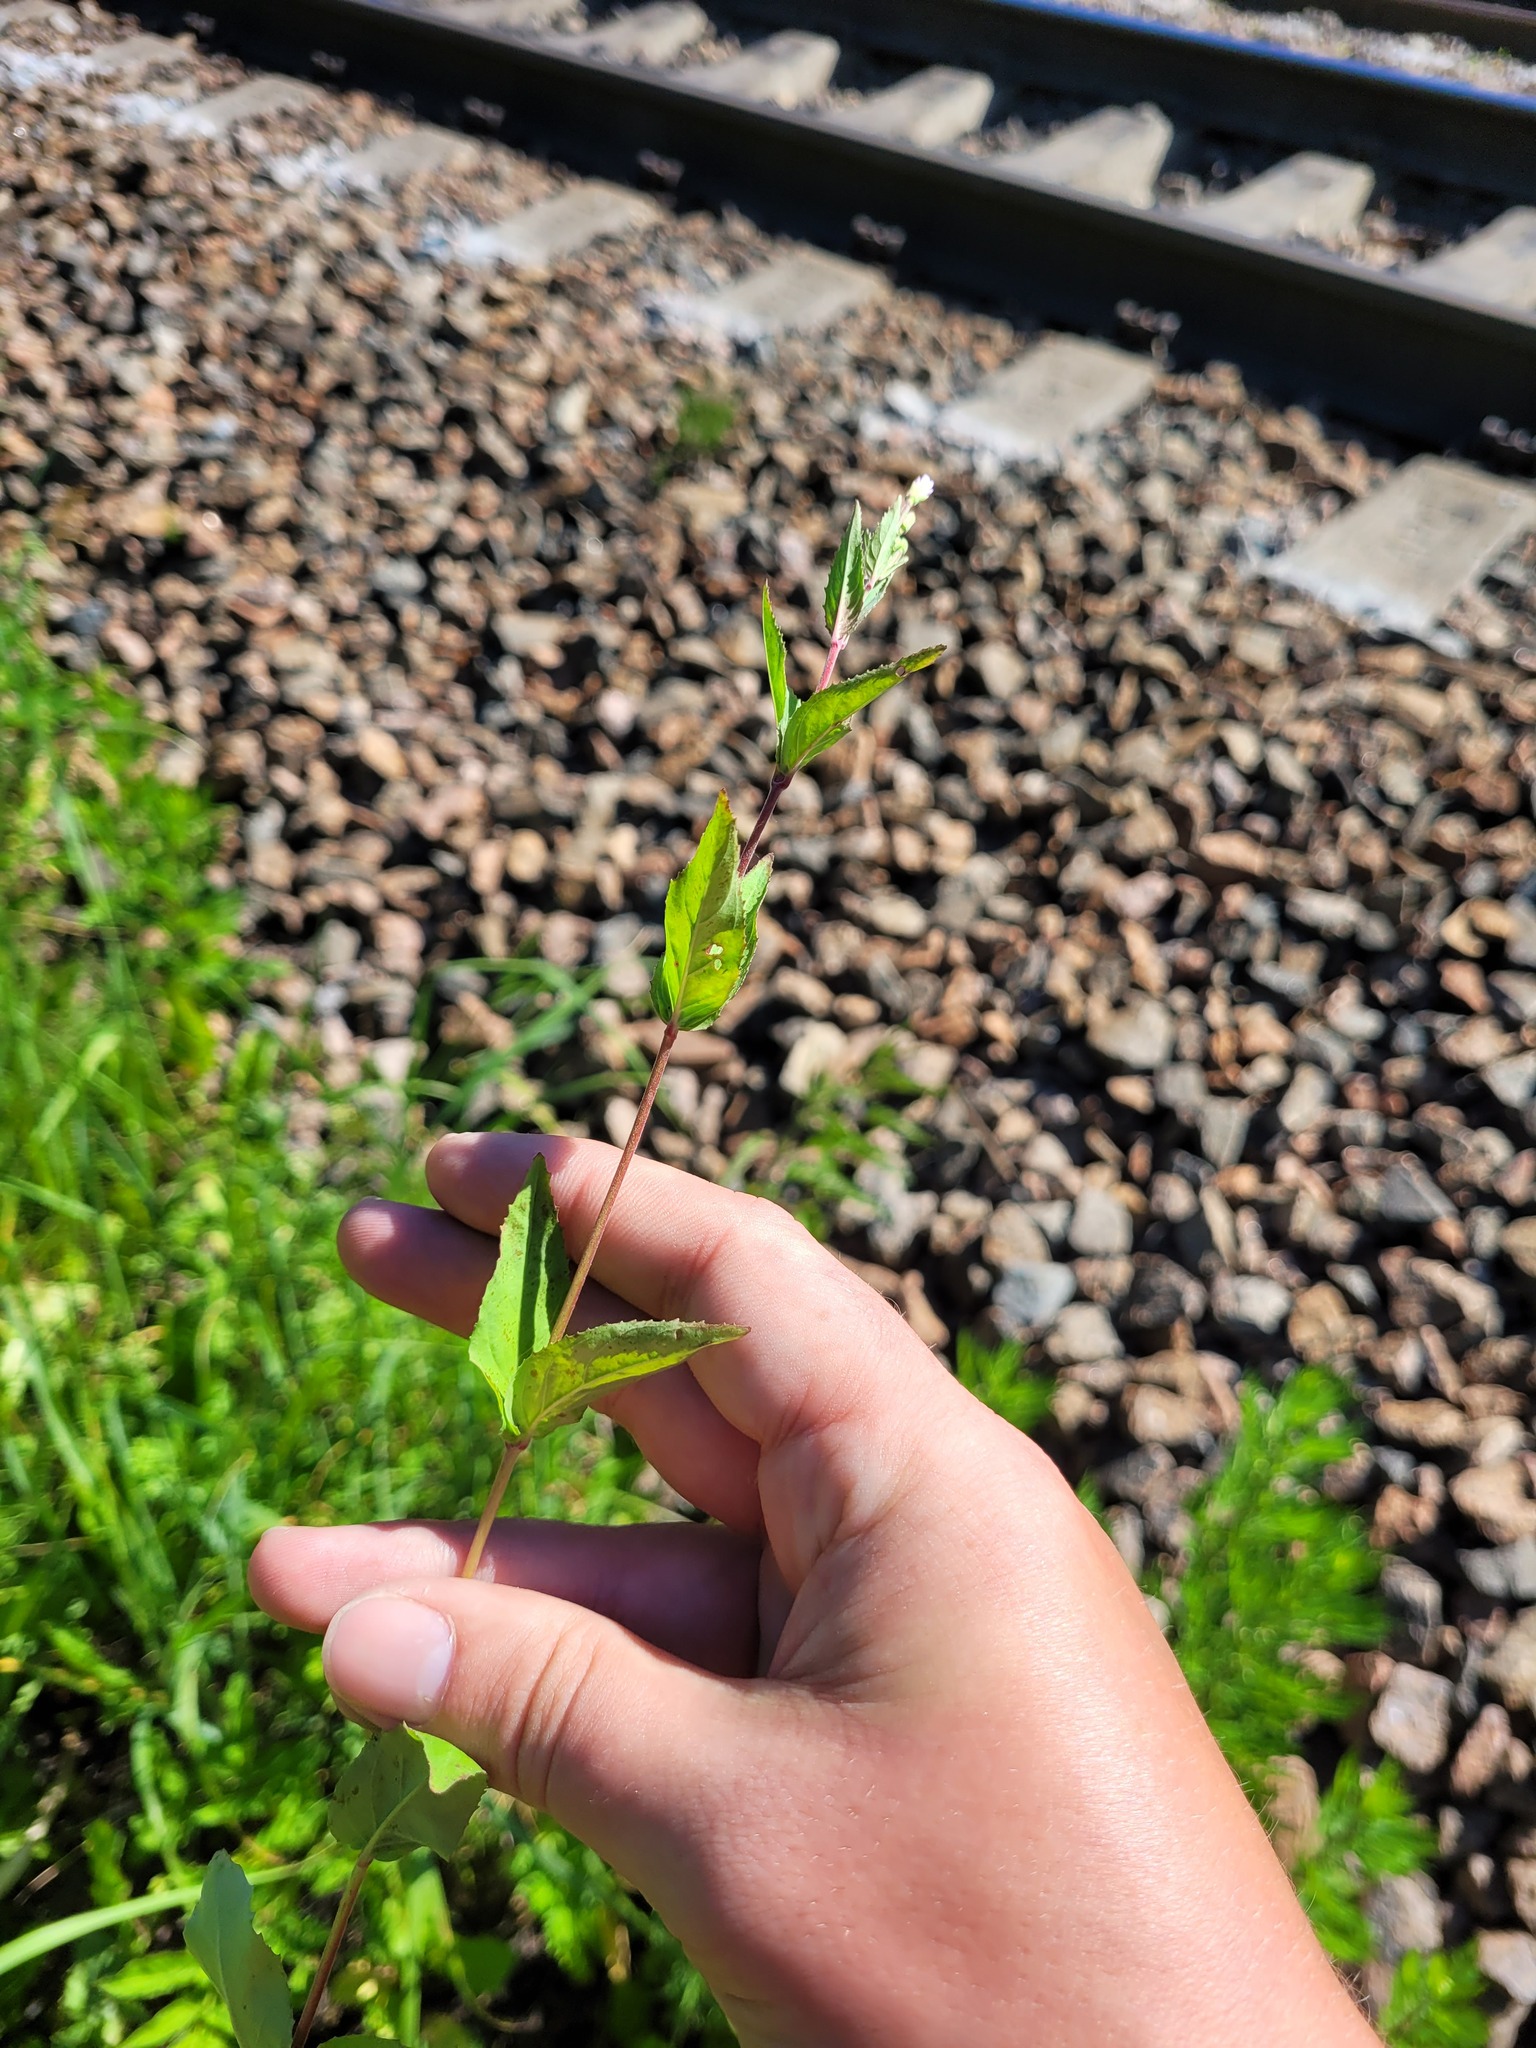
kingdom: Plantae
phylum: Tracheophyta
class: Magnoliopsida
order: Myrtales
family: Onagraceae
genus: Epilobium
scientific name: Epilobium montanum
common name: Broad-leaved willowherb
